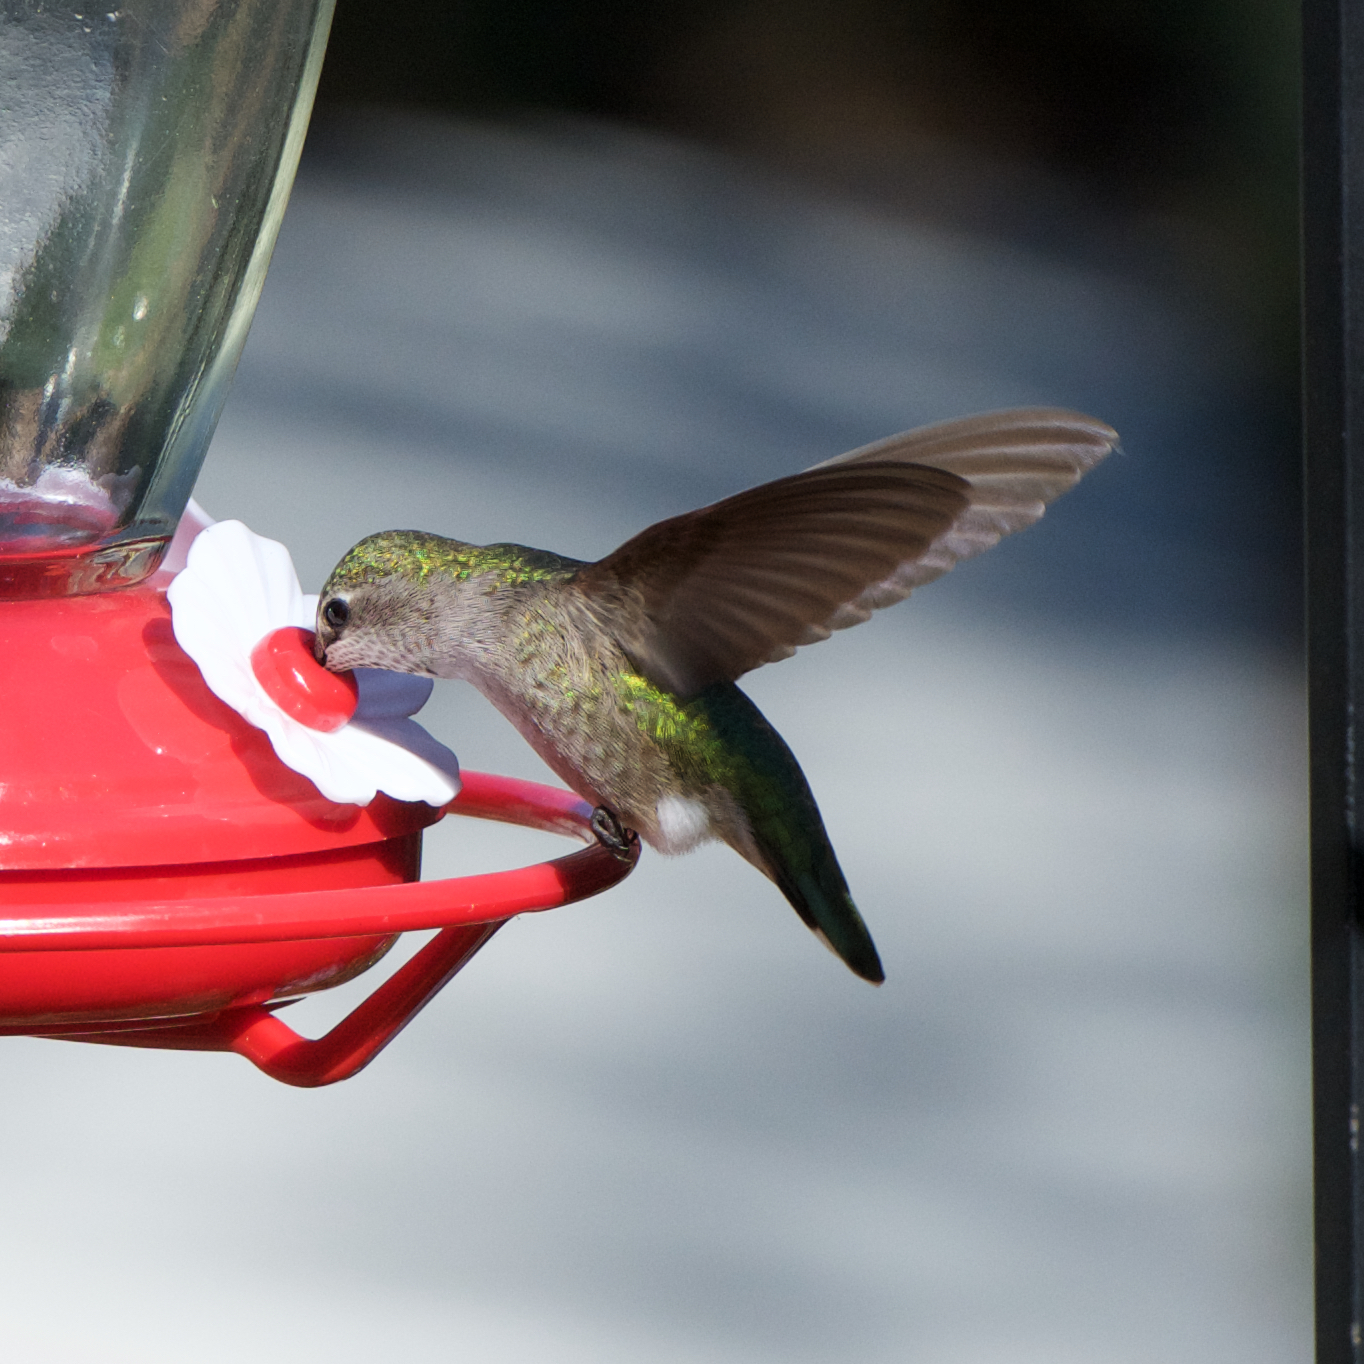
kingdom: Animalia
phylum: Chordata
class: Aves
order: Apodiformes
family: Trochilidae
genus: Calypte
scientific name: Calypte anna
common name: Anna's hummingbird
